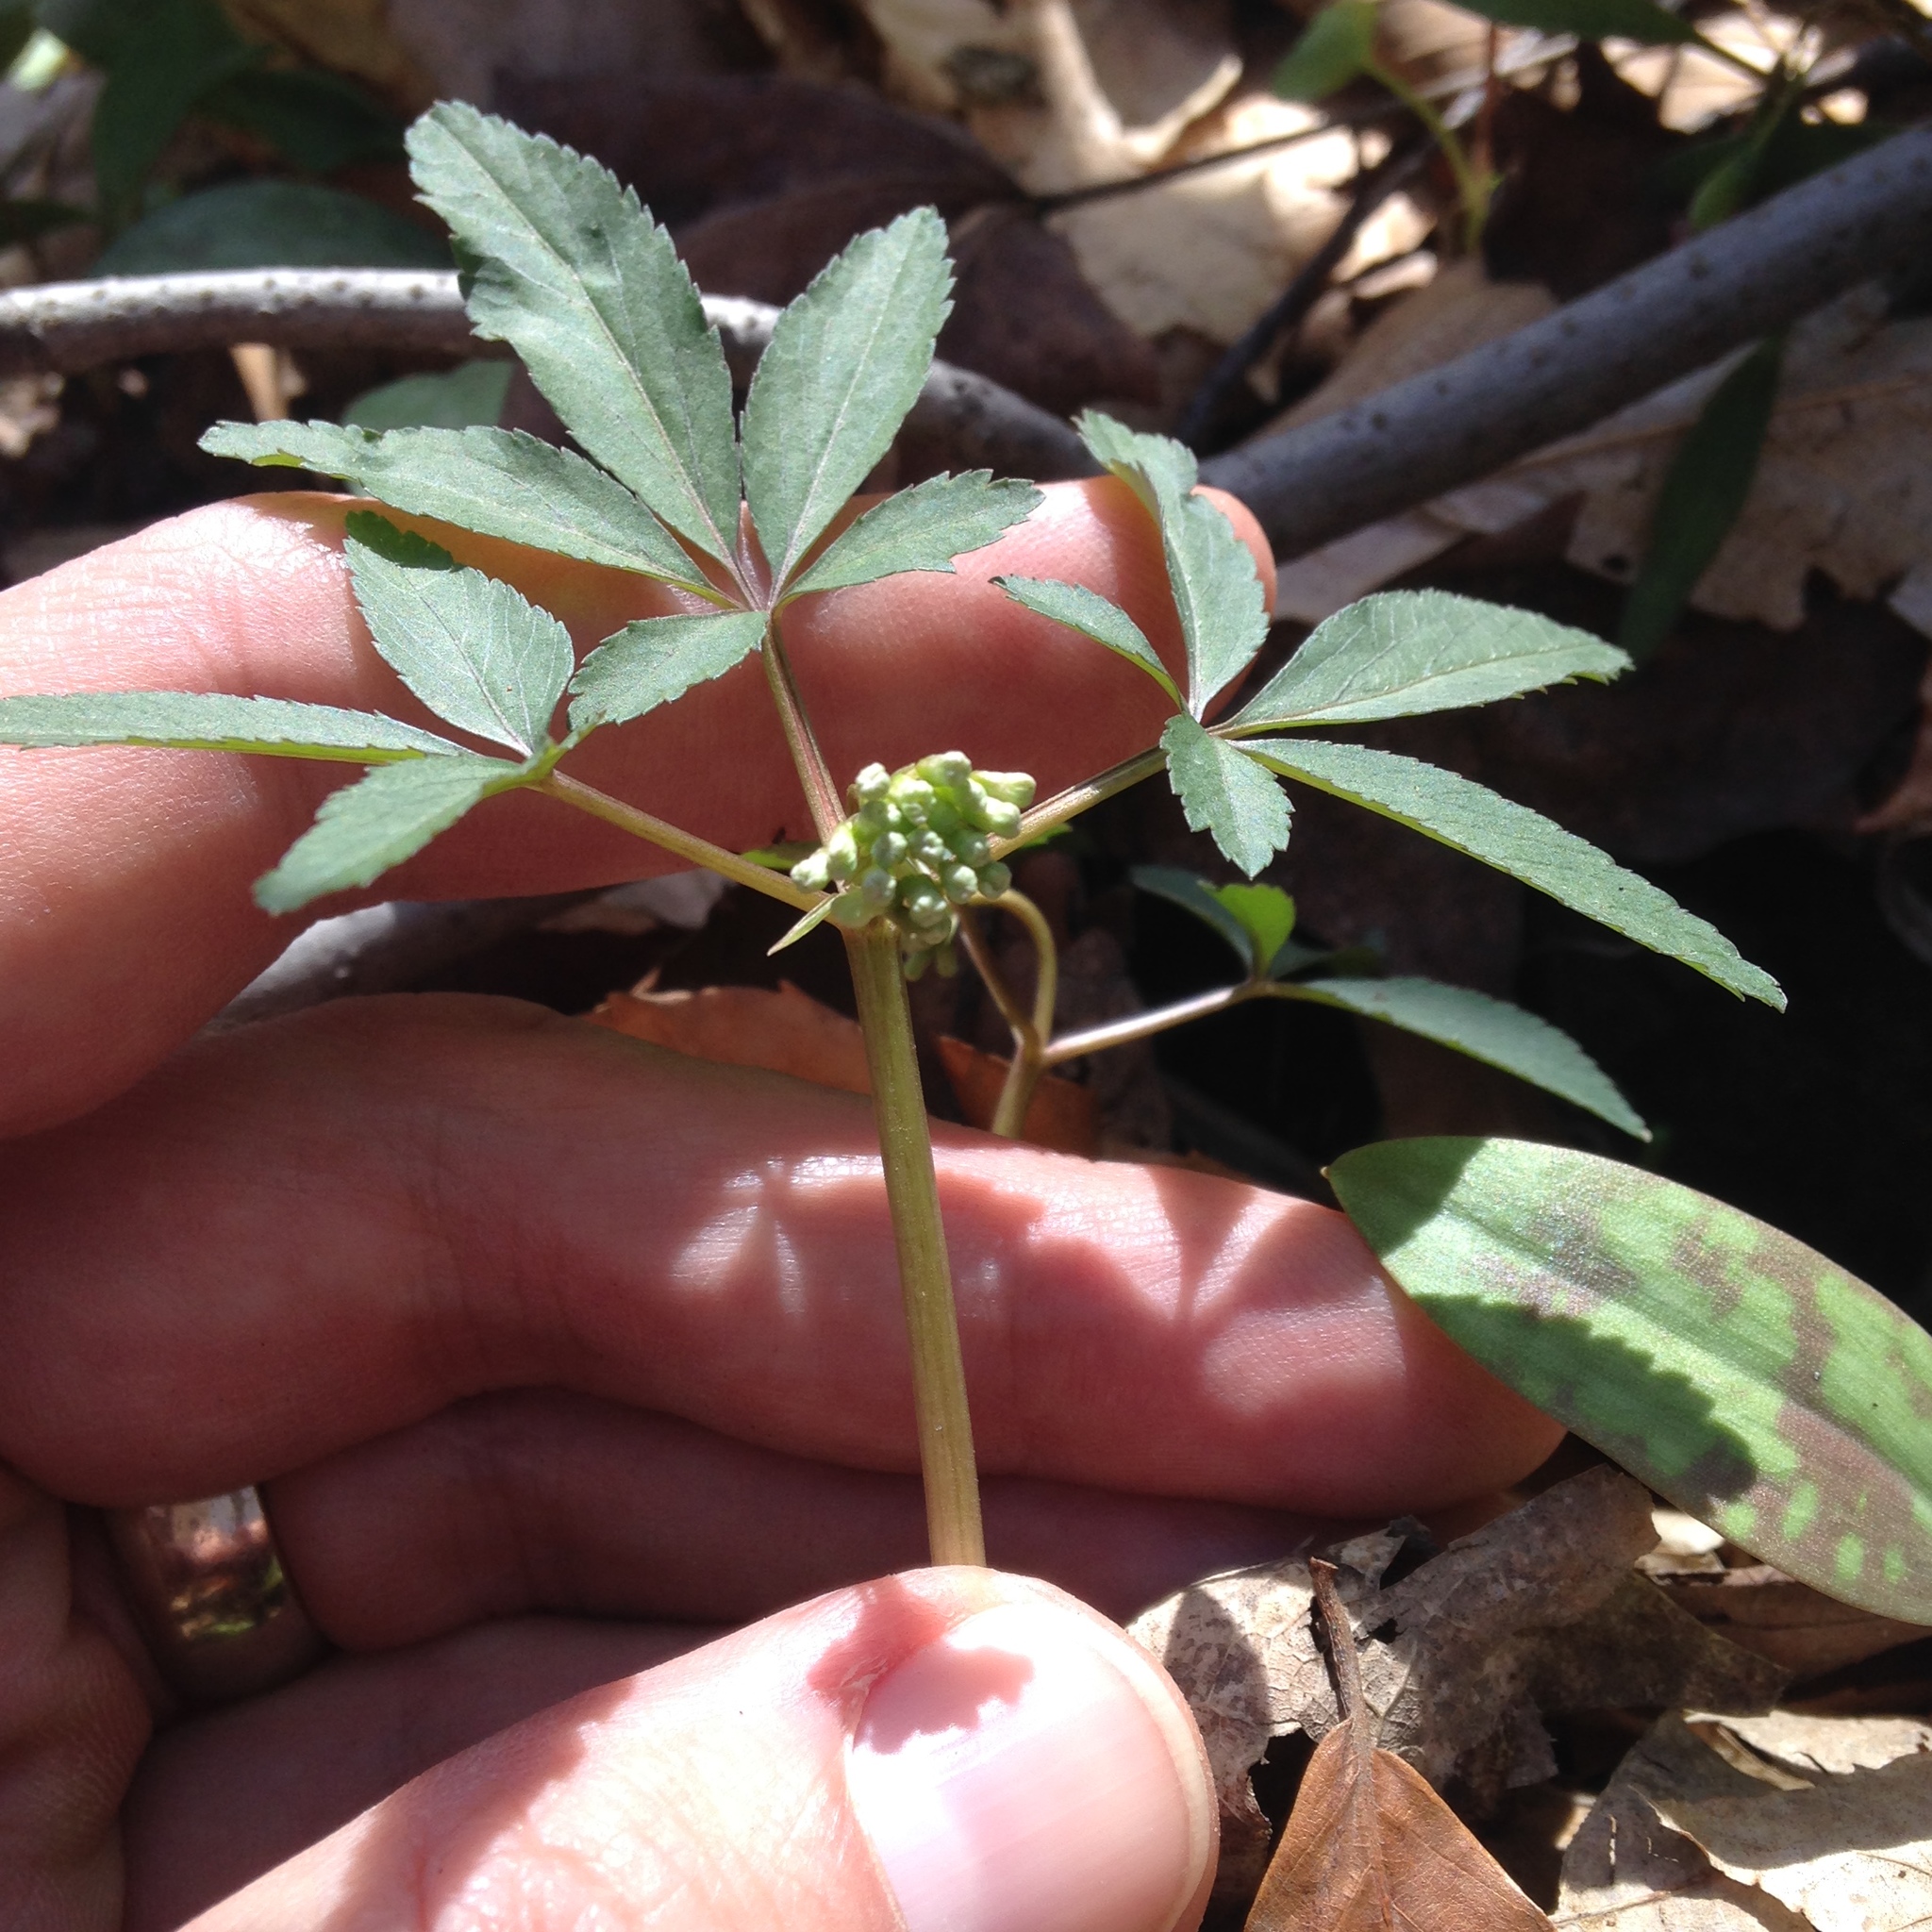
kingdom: Plantae
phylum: Tracheophyta
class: Magnoliopsida
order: Apiales
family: Araliaceae
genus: Panax
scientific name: Panax trifolius
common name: Dwarf ginseng
